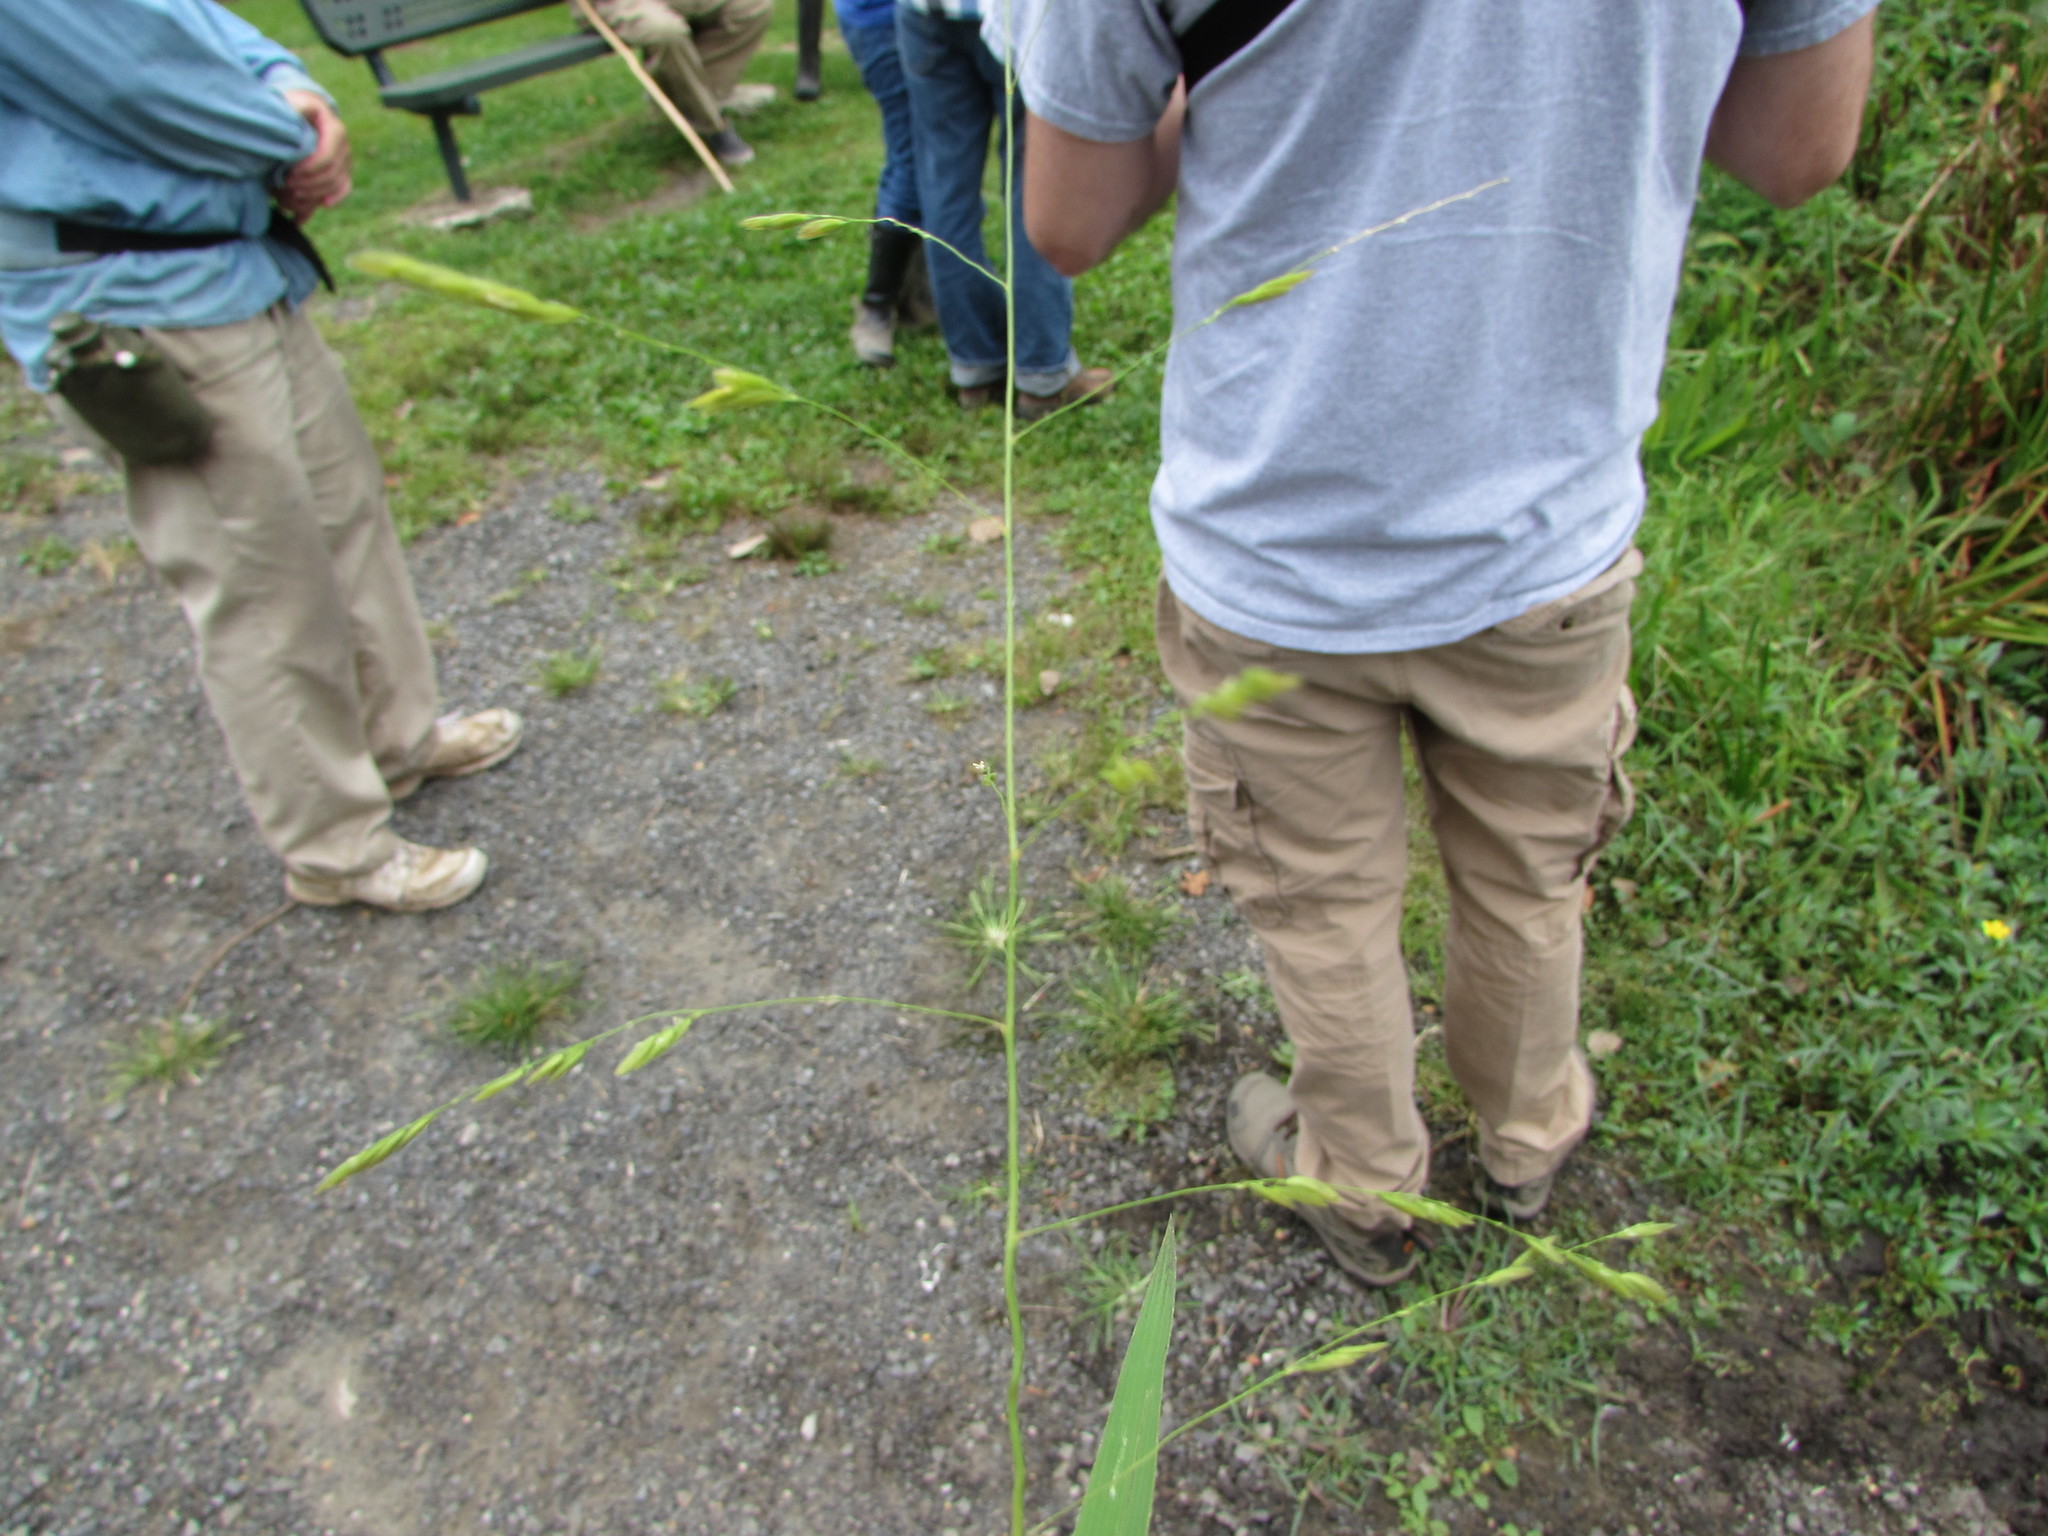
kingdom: Plantae
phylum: Tracheophyta
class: Liliopsida
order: Poales
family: Poaceae
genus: Leersia
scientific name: Leersia oryzoides
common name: Cut-grass
